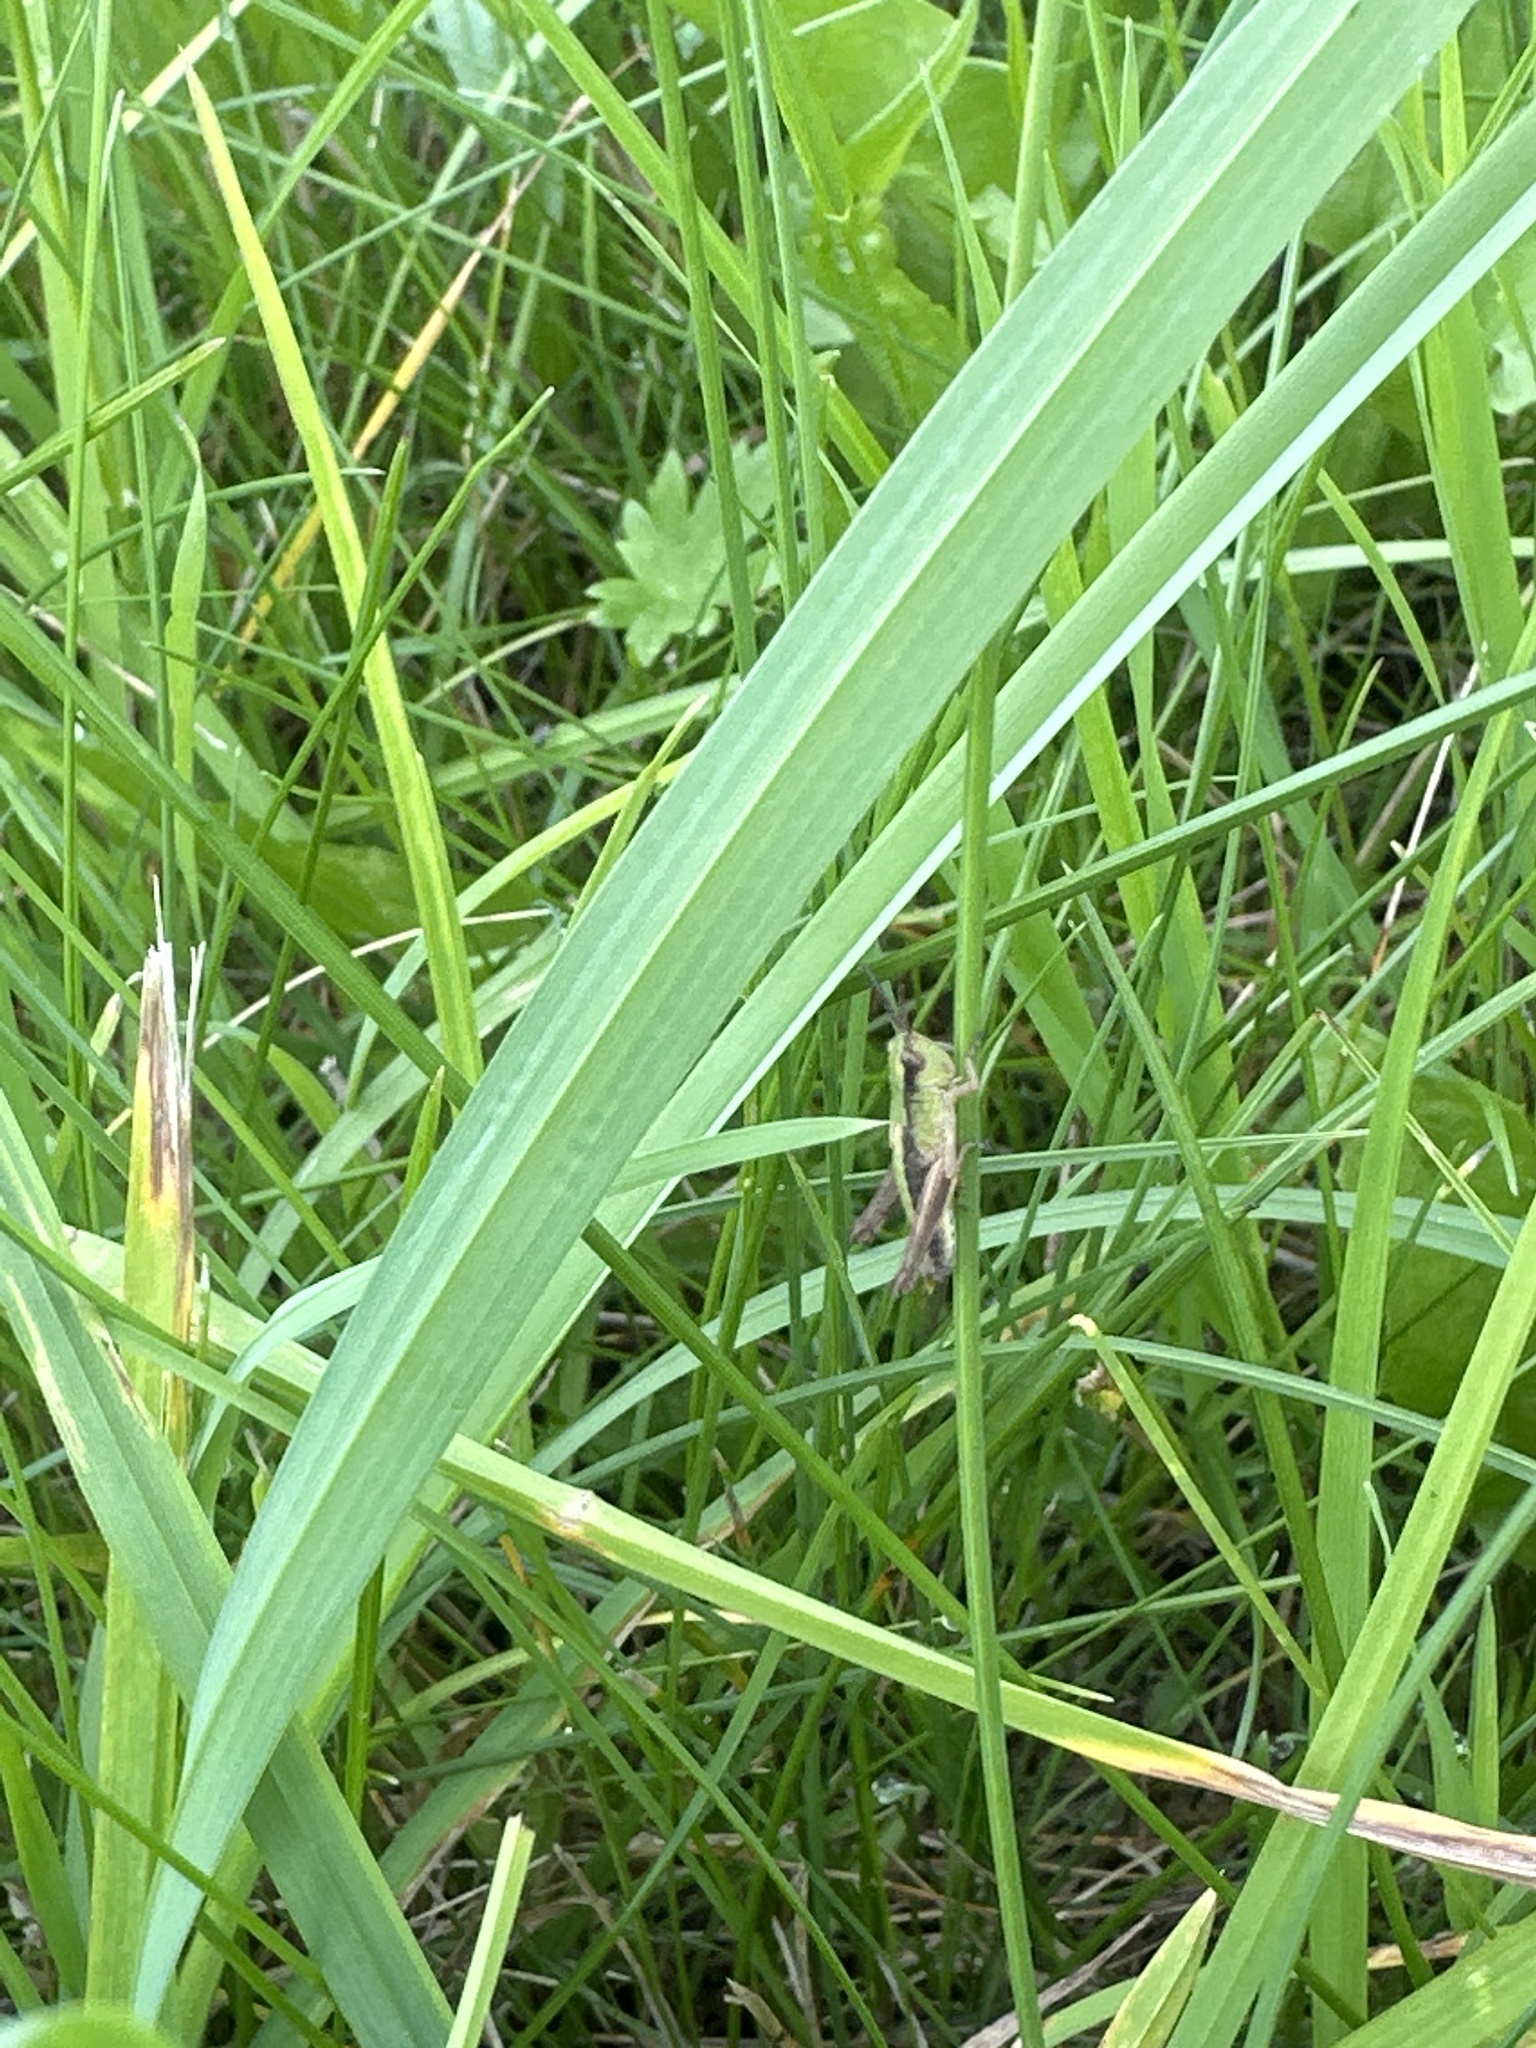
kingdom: Animalia
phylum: Arthropoda
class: Insecta
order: Orthoptera
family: Acrididae
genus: Pseudochorthippus
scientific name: Pseudochorthippus parallelus
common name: Meadow grasshopper
